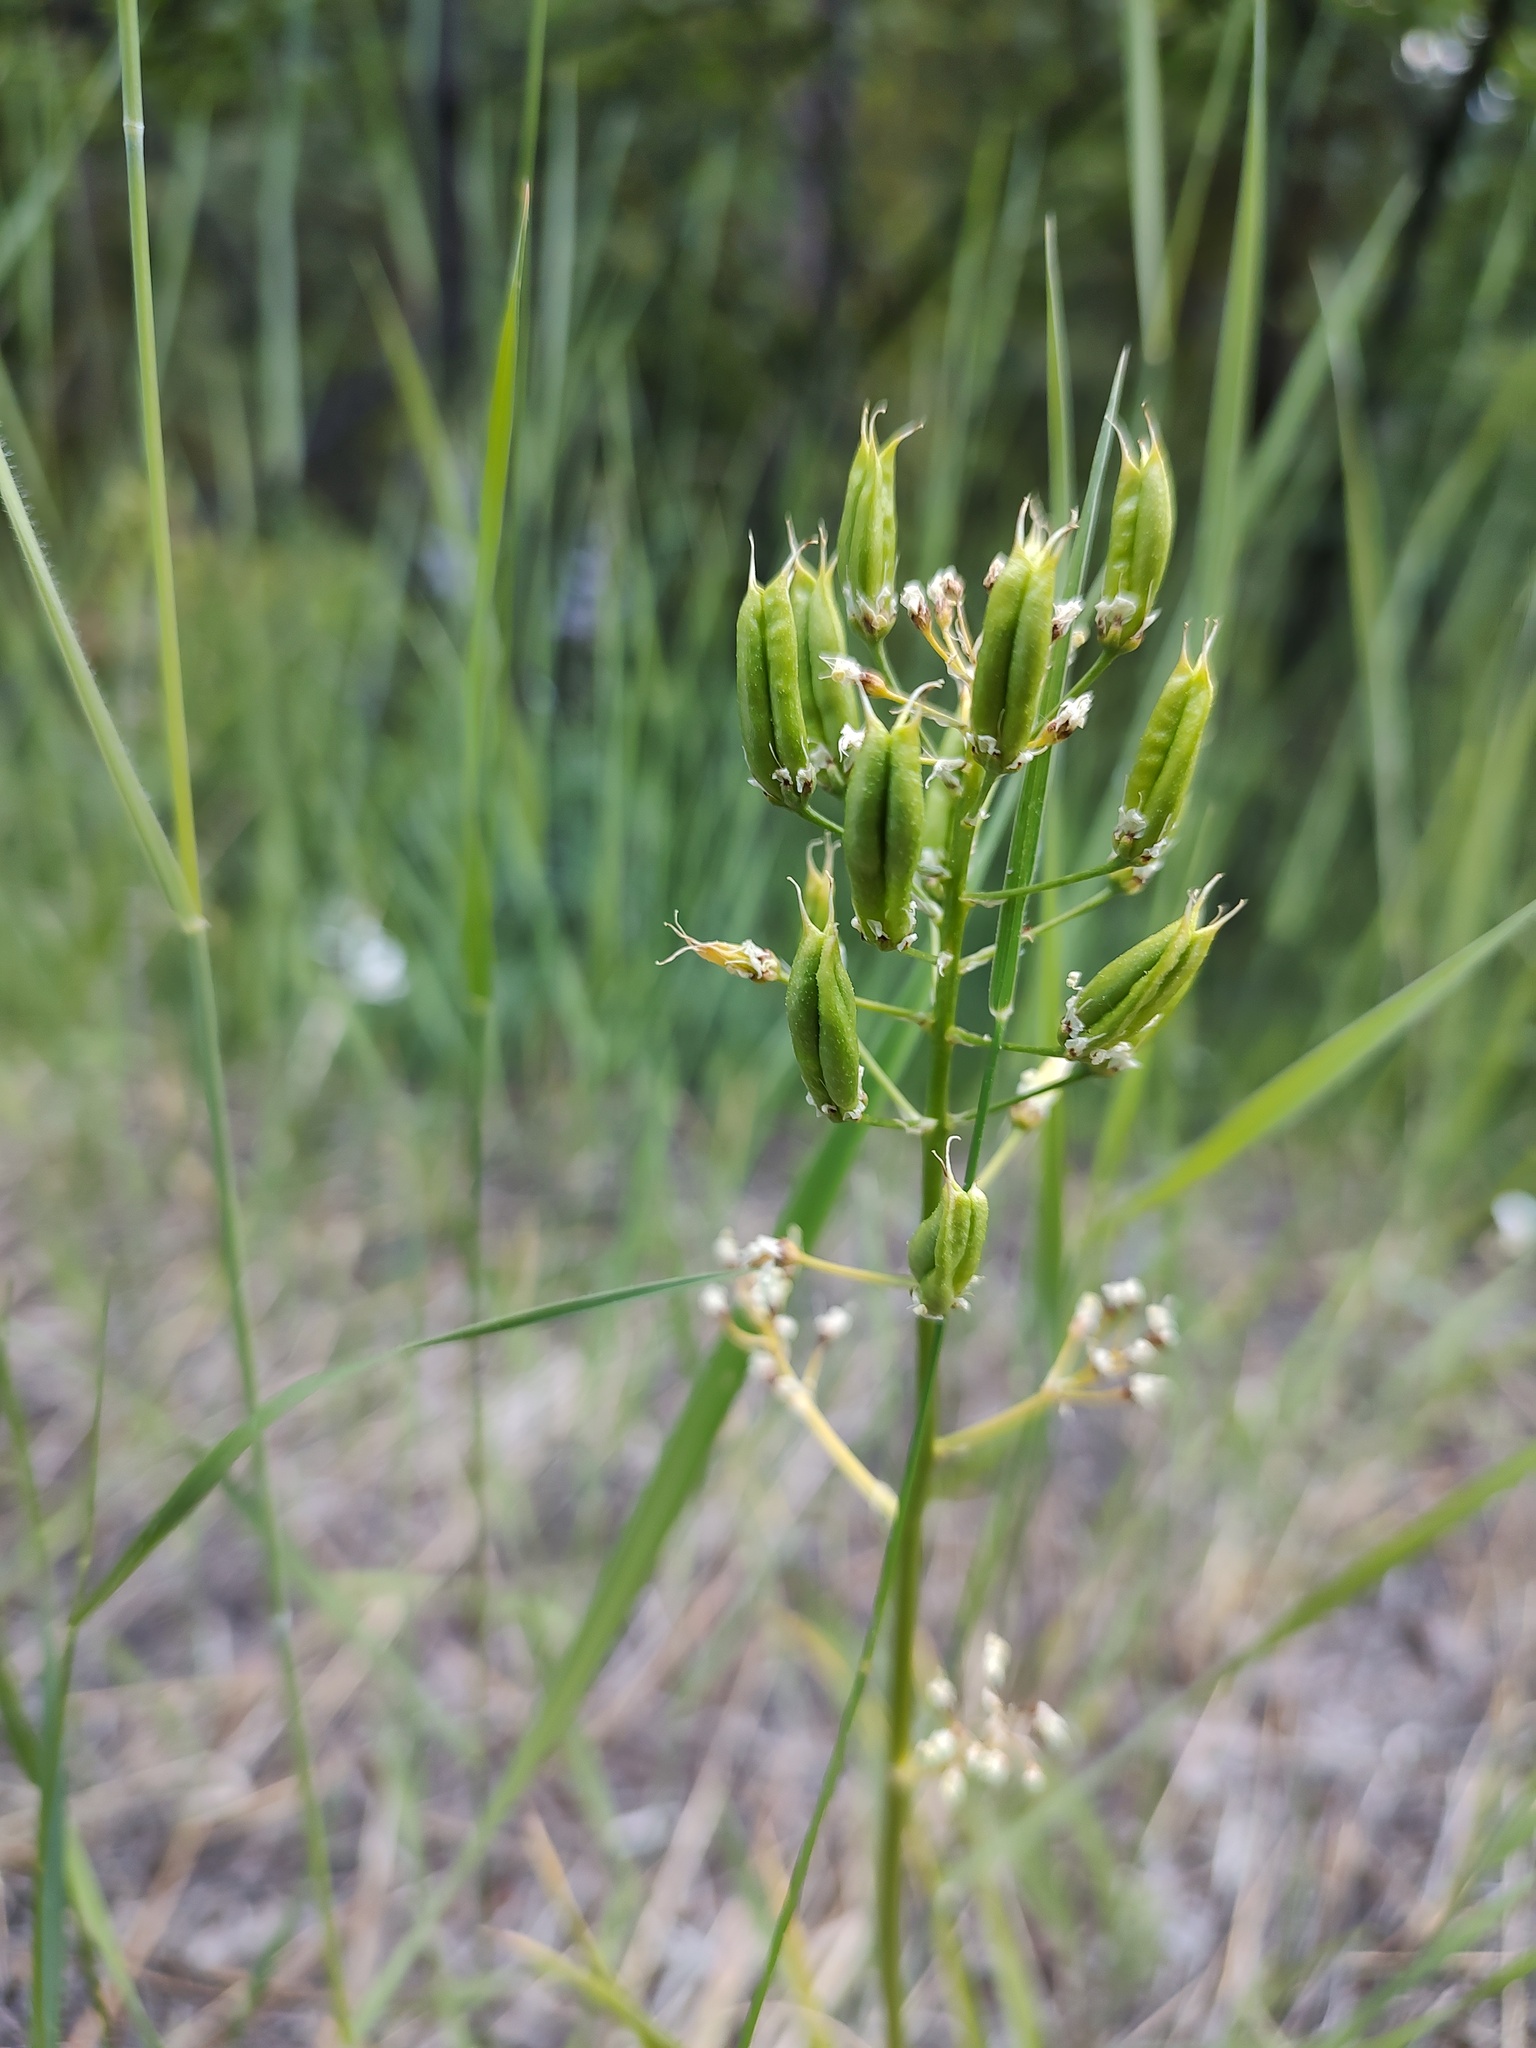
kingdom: Plantae
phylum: Tracheophyta
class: Liliopsida
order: Liliales
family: Melanthiaceae
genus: Toxicoscordion
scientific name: Toxicoscordion paniculatum
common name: Foothill death camas
